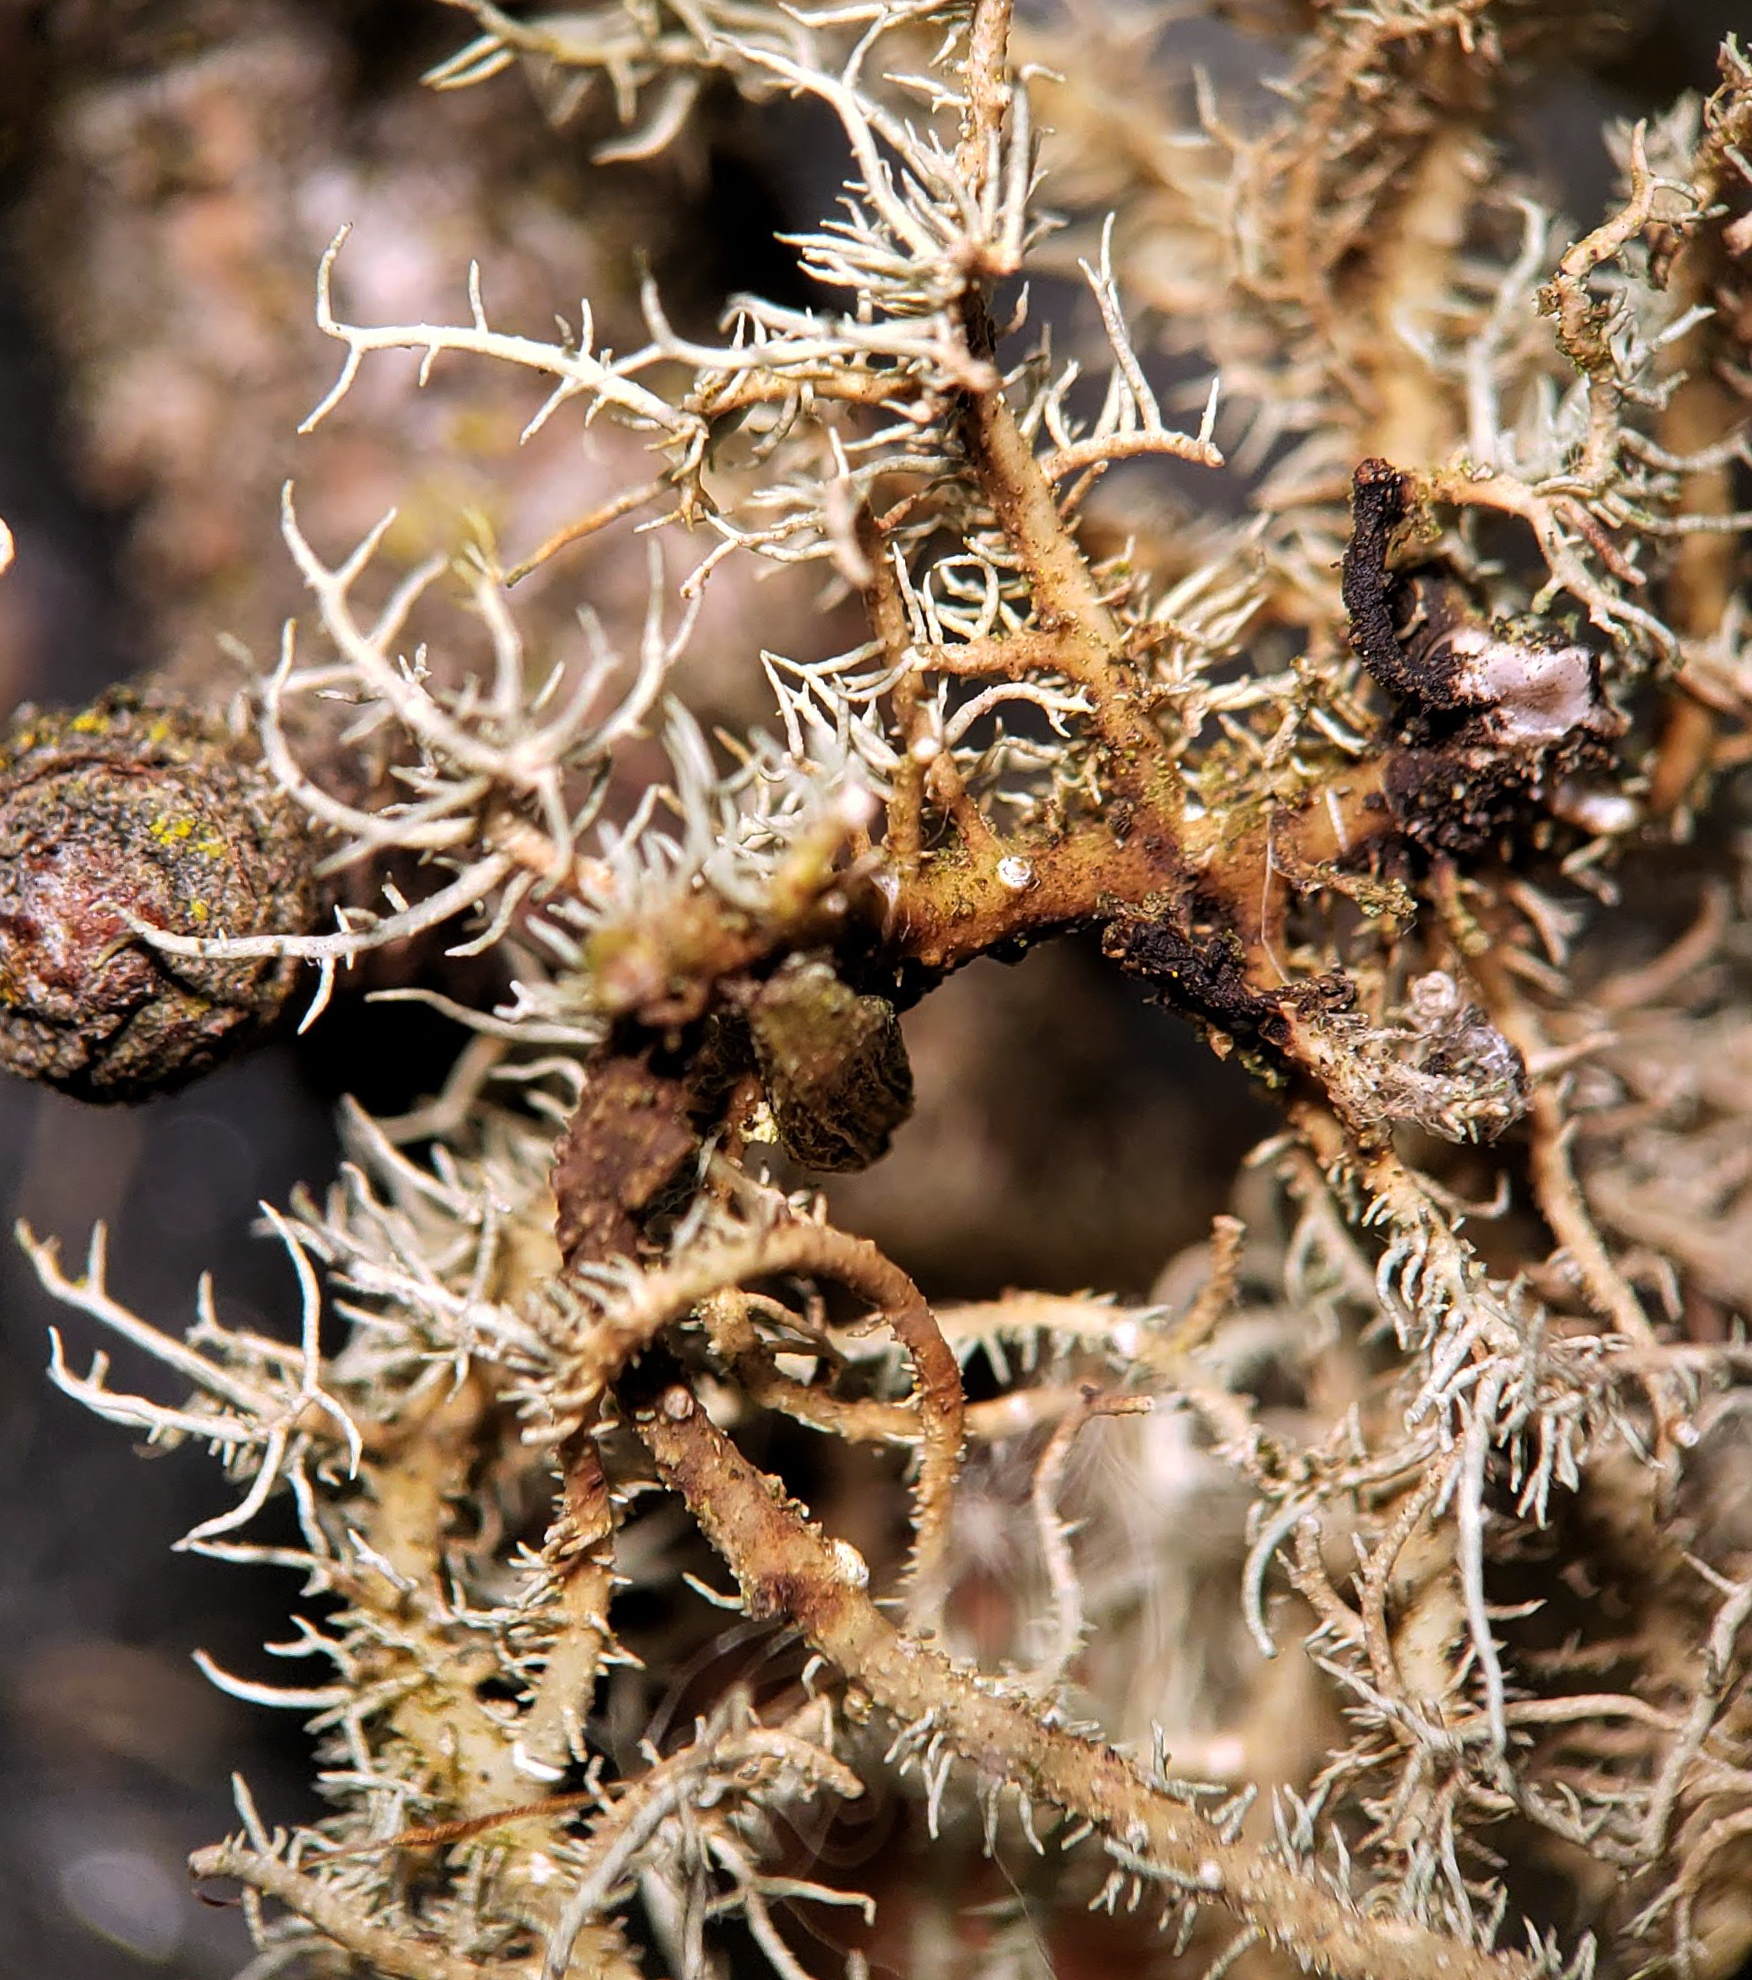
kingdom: Fungi
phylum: Ascomycota
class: Lecanoromycetes
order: Lecanorales
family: Parmeliaceae
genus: Usnea
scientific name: Usnea
